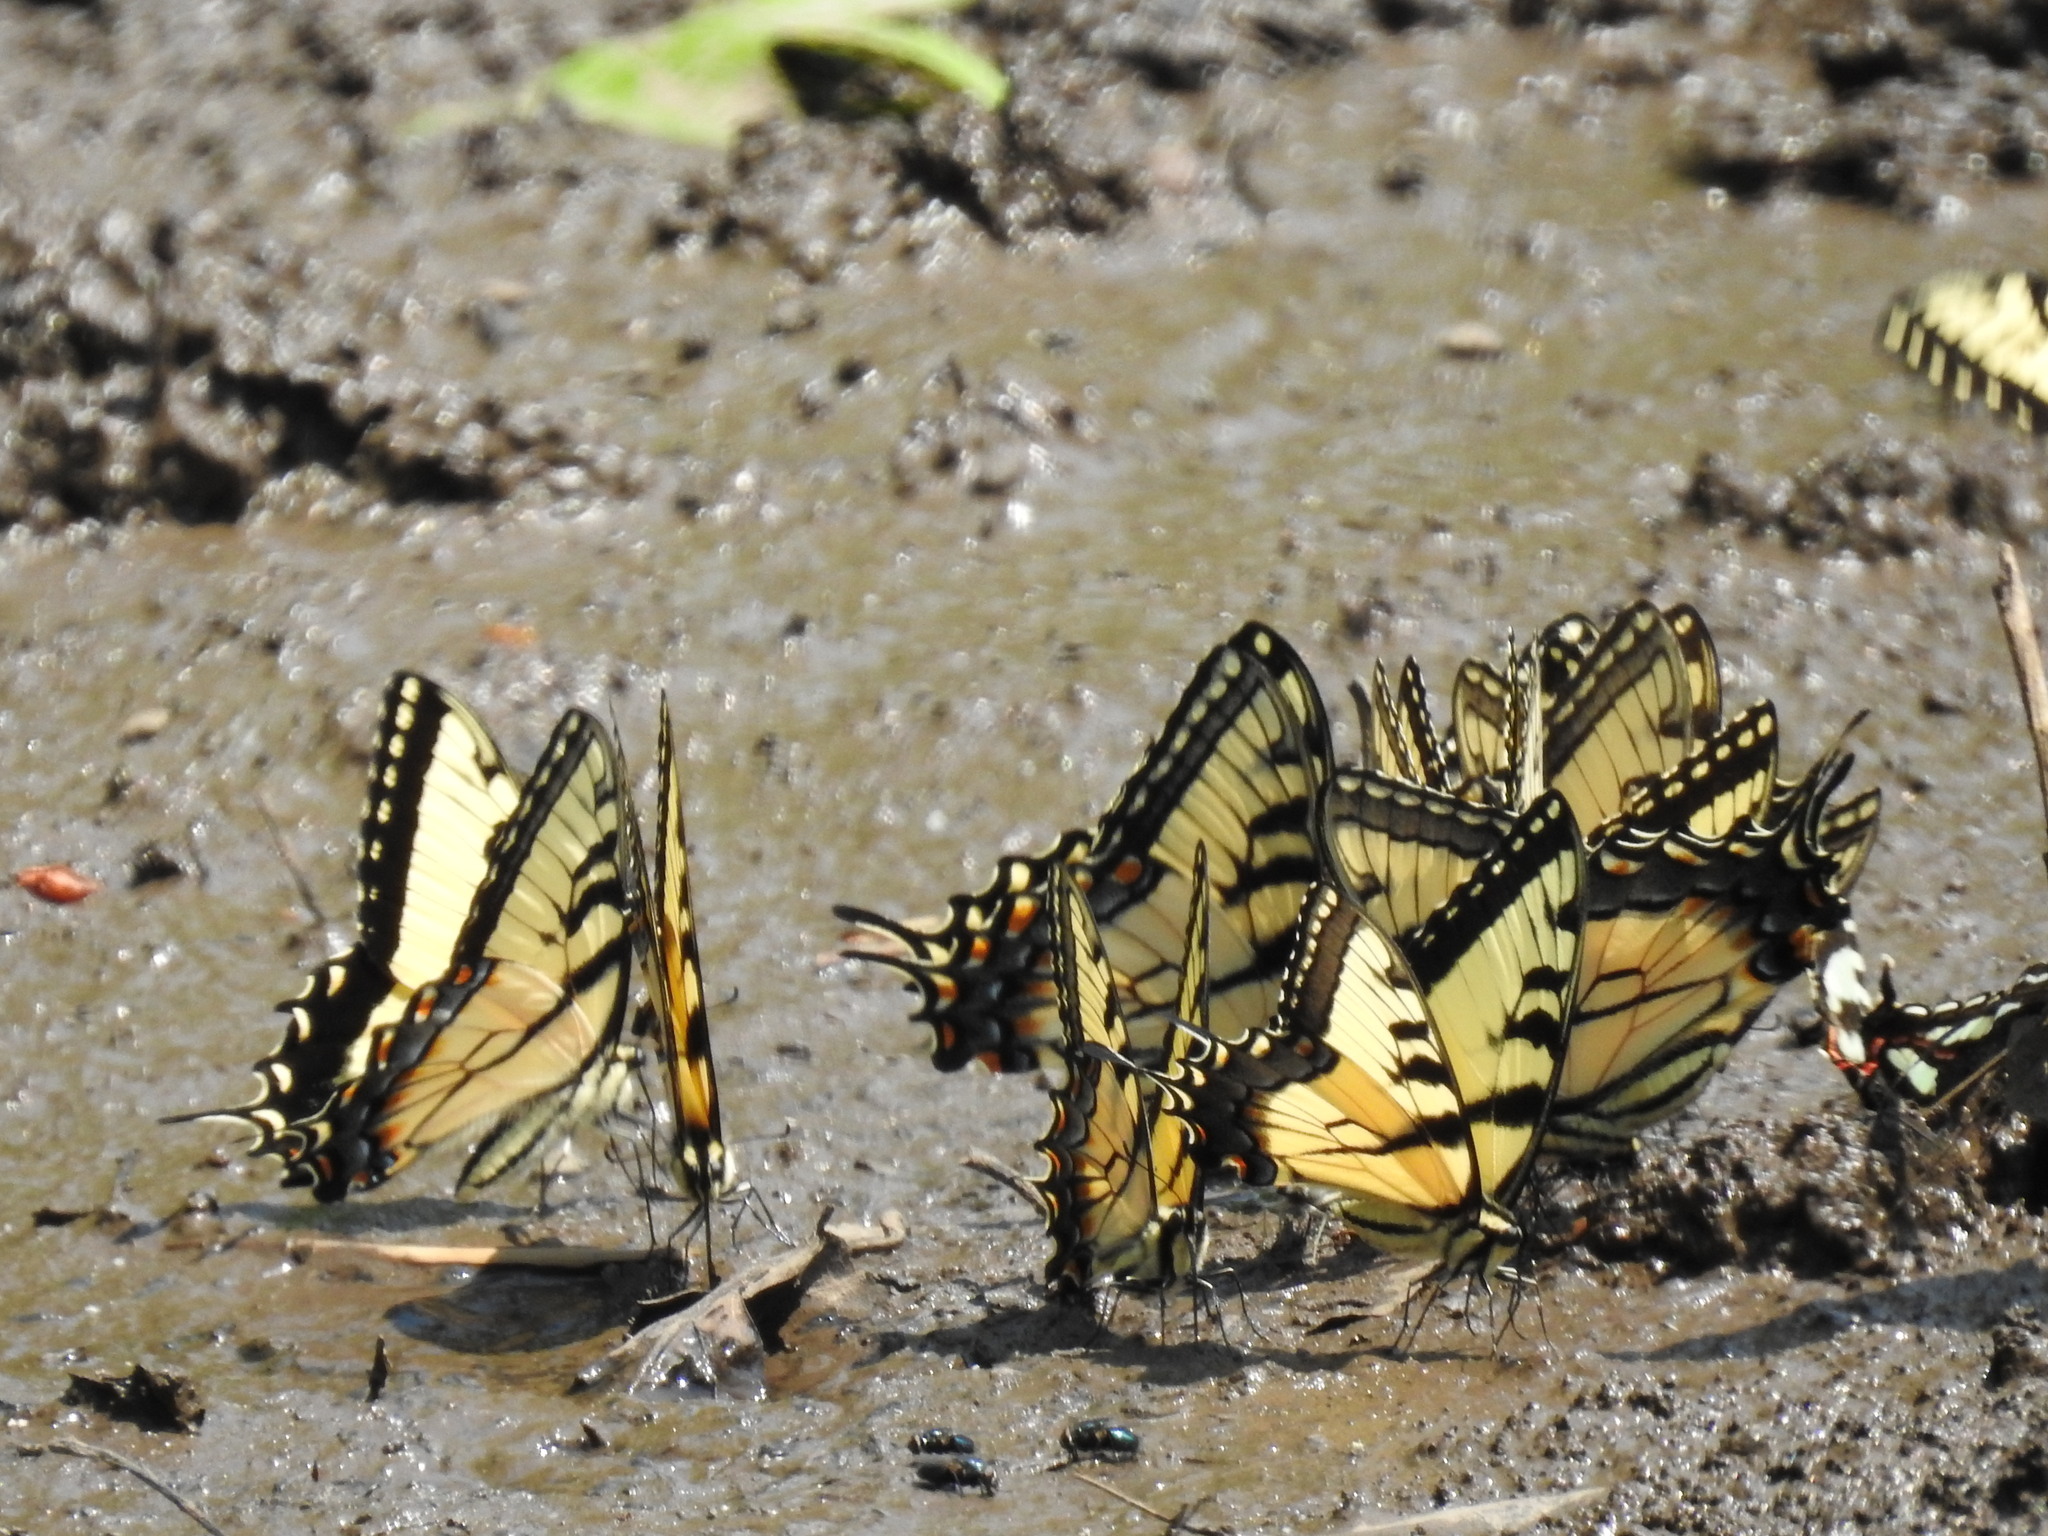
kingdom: Animalia
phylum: Arthropoda
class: Insecta
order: Lepidoptera
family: Papilionidae
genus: Papilio
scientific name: Papilio glaucus
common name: Tiger swallowtail
